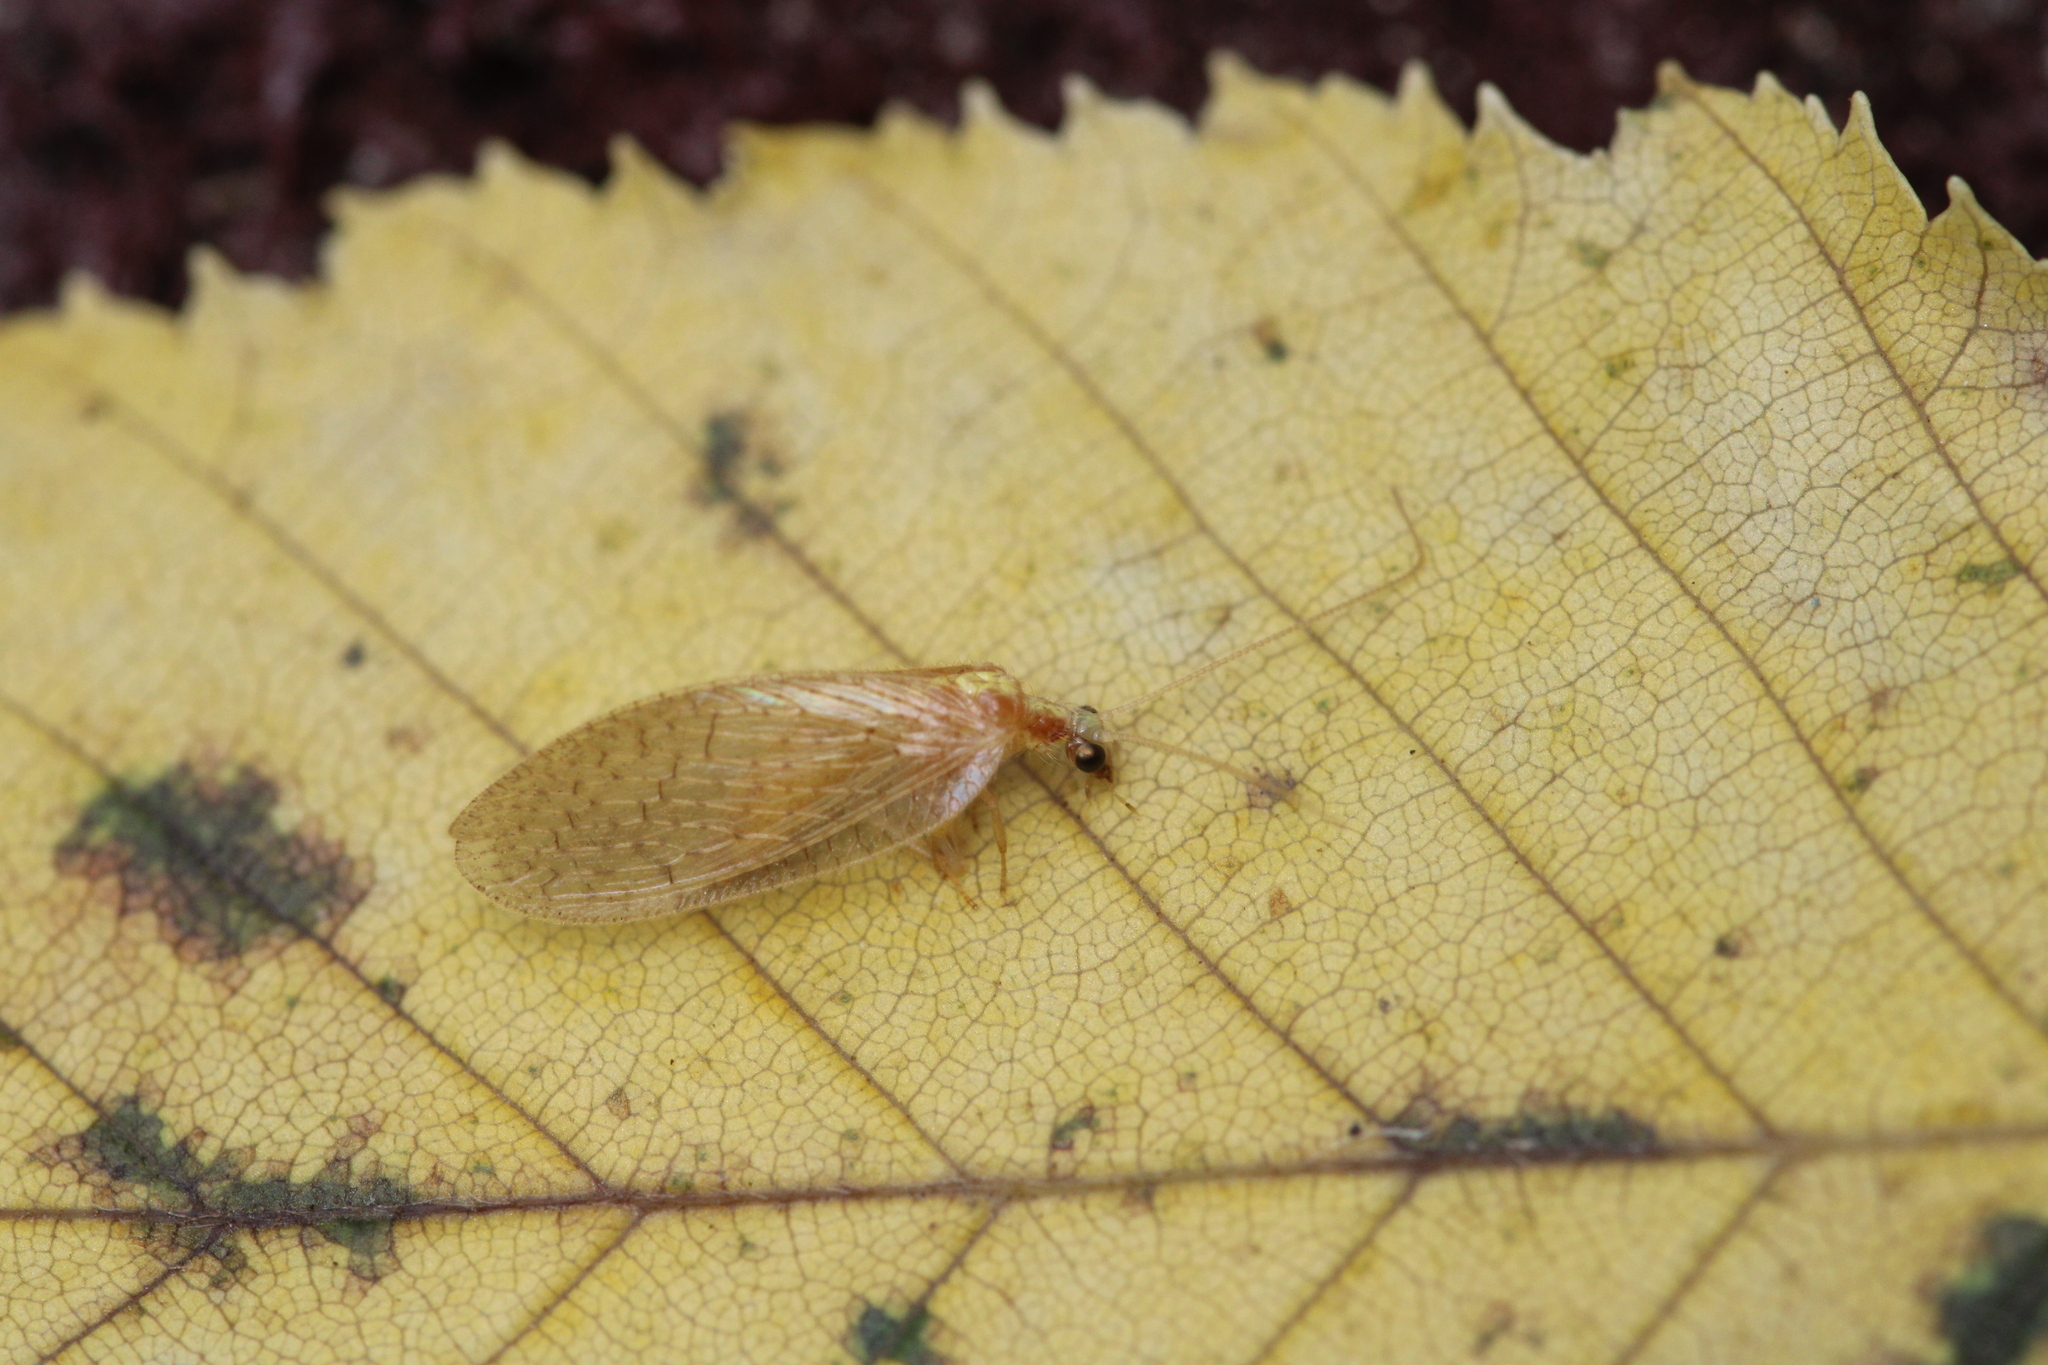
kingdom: Animalia
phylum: Arthropoda
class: Insecta
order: Neuroptera
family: Hemerobiidae
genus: Hemerobius
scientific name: Hemerobius micans
